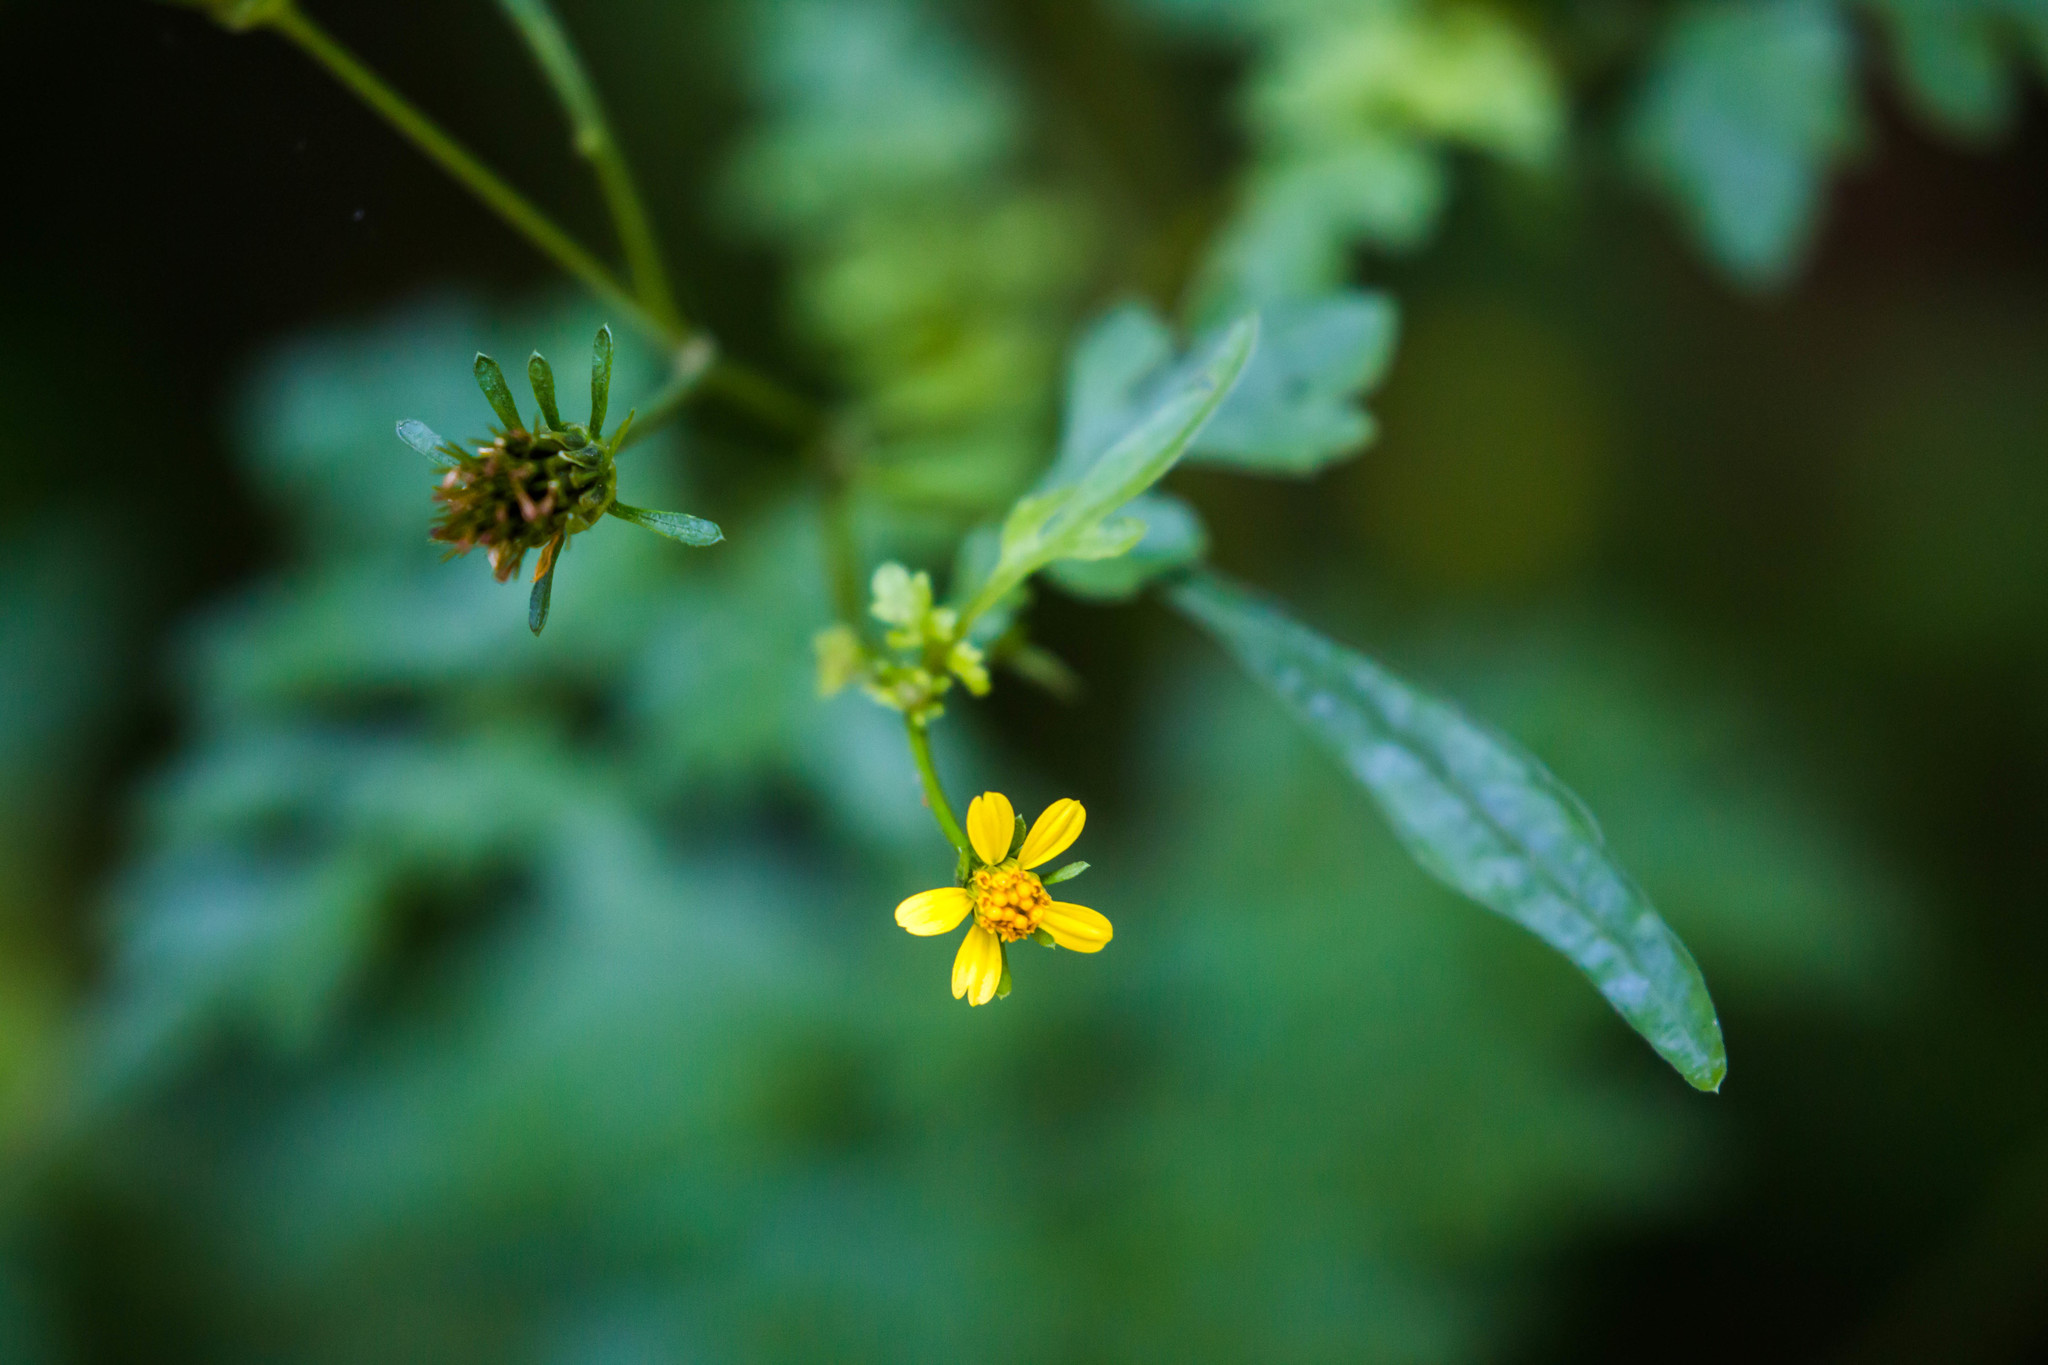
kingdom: Plantae
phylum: Tracheophyta
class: Magnoliopsida
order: Asterales
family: Asteraceae
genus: Bidens
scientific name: Bidens bipinnata
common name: Spanish-needles
